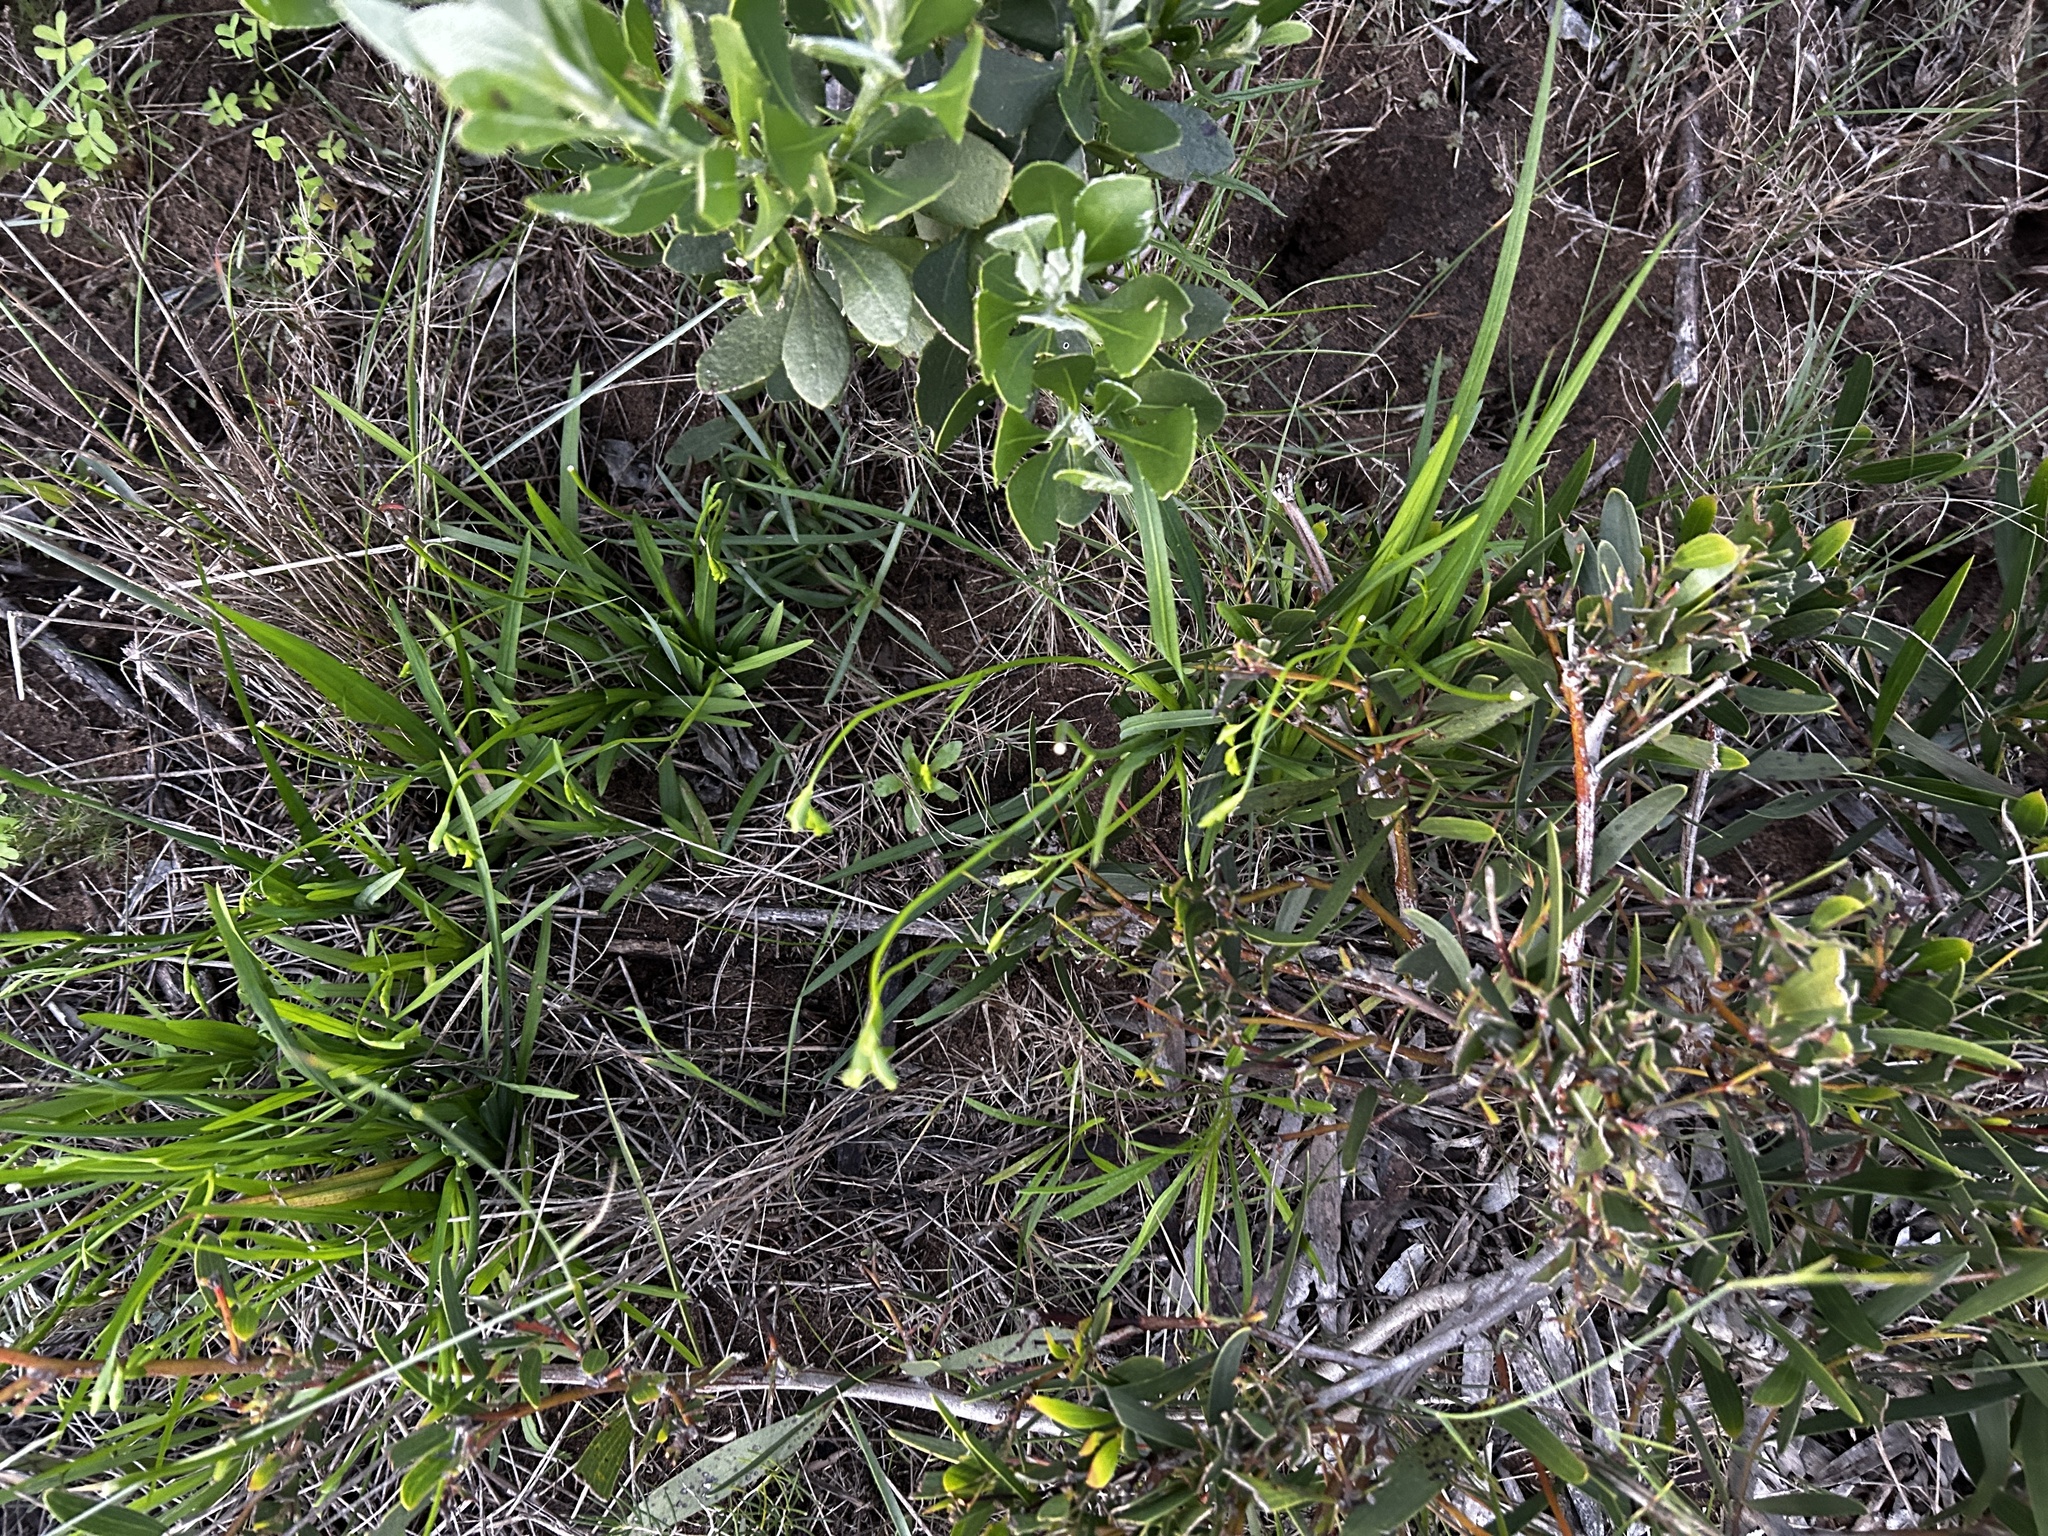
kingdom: Plantae
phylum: Tracheophyta
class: Liliopsida
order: Asparagales
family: Iridaceae
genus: Freesia
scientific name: Freesia leichtlinii
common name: Freesia
